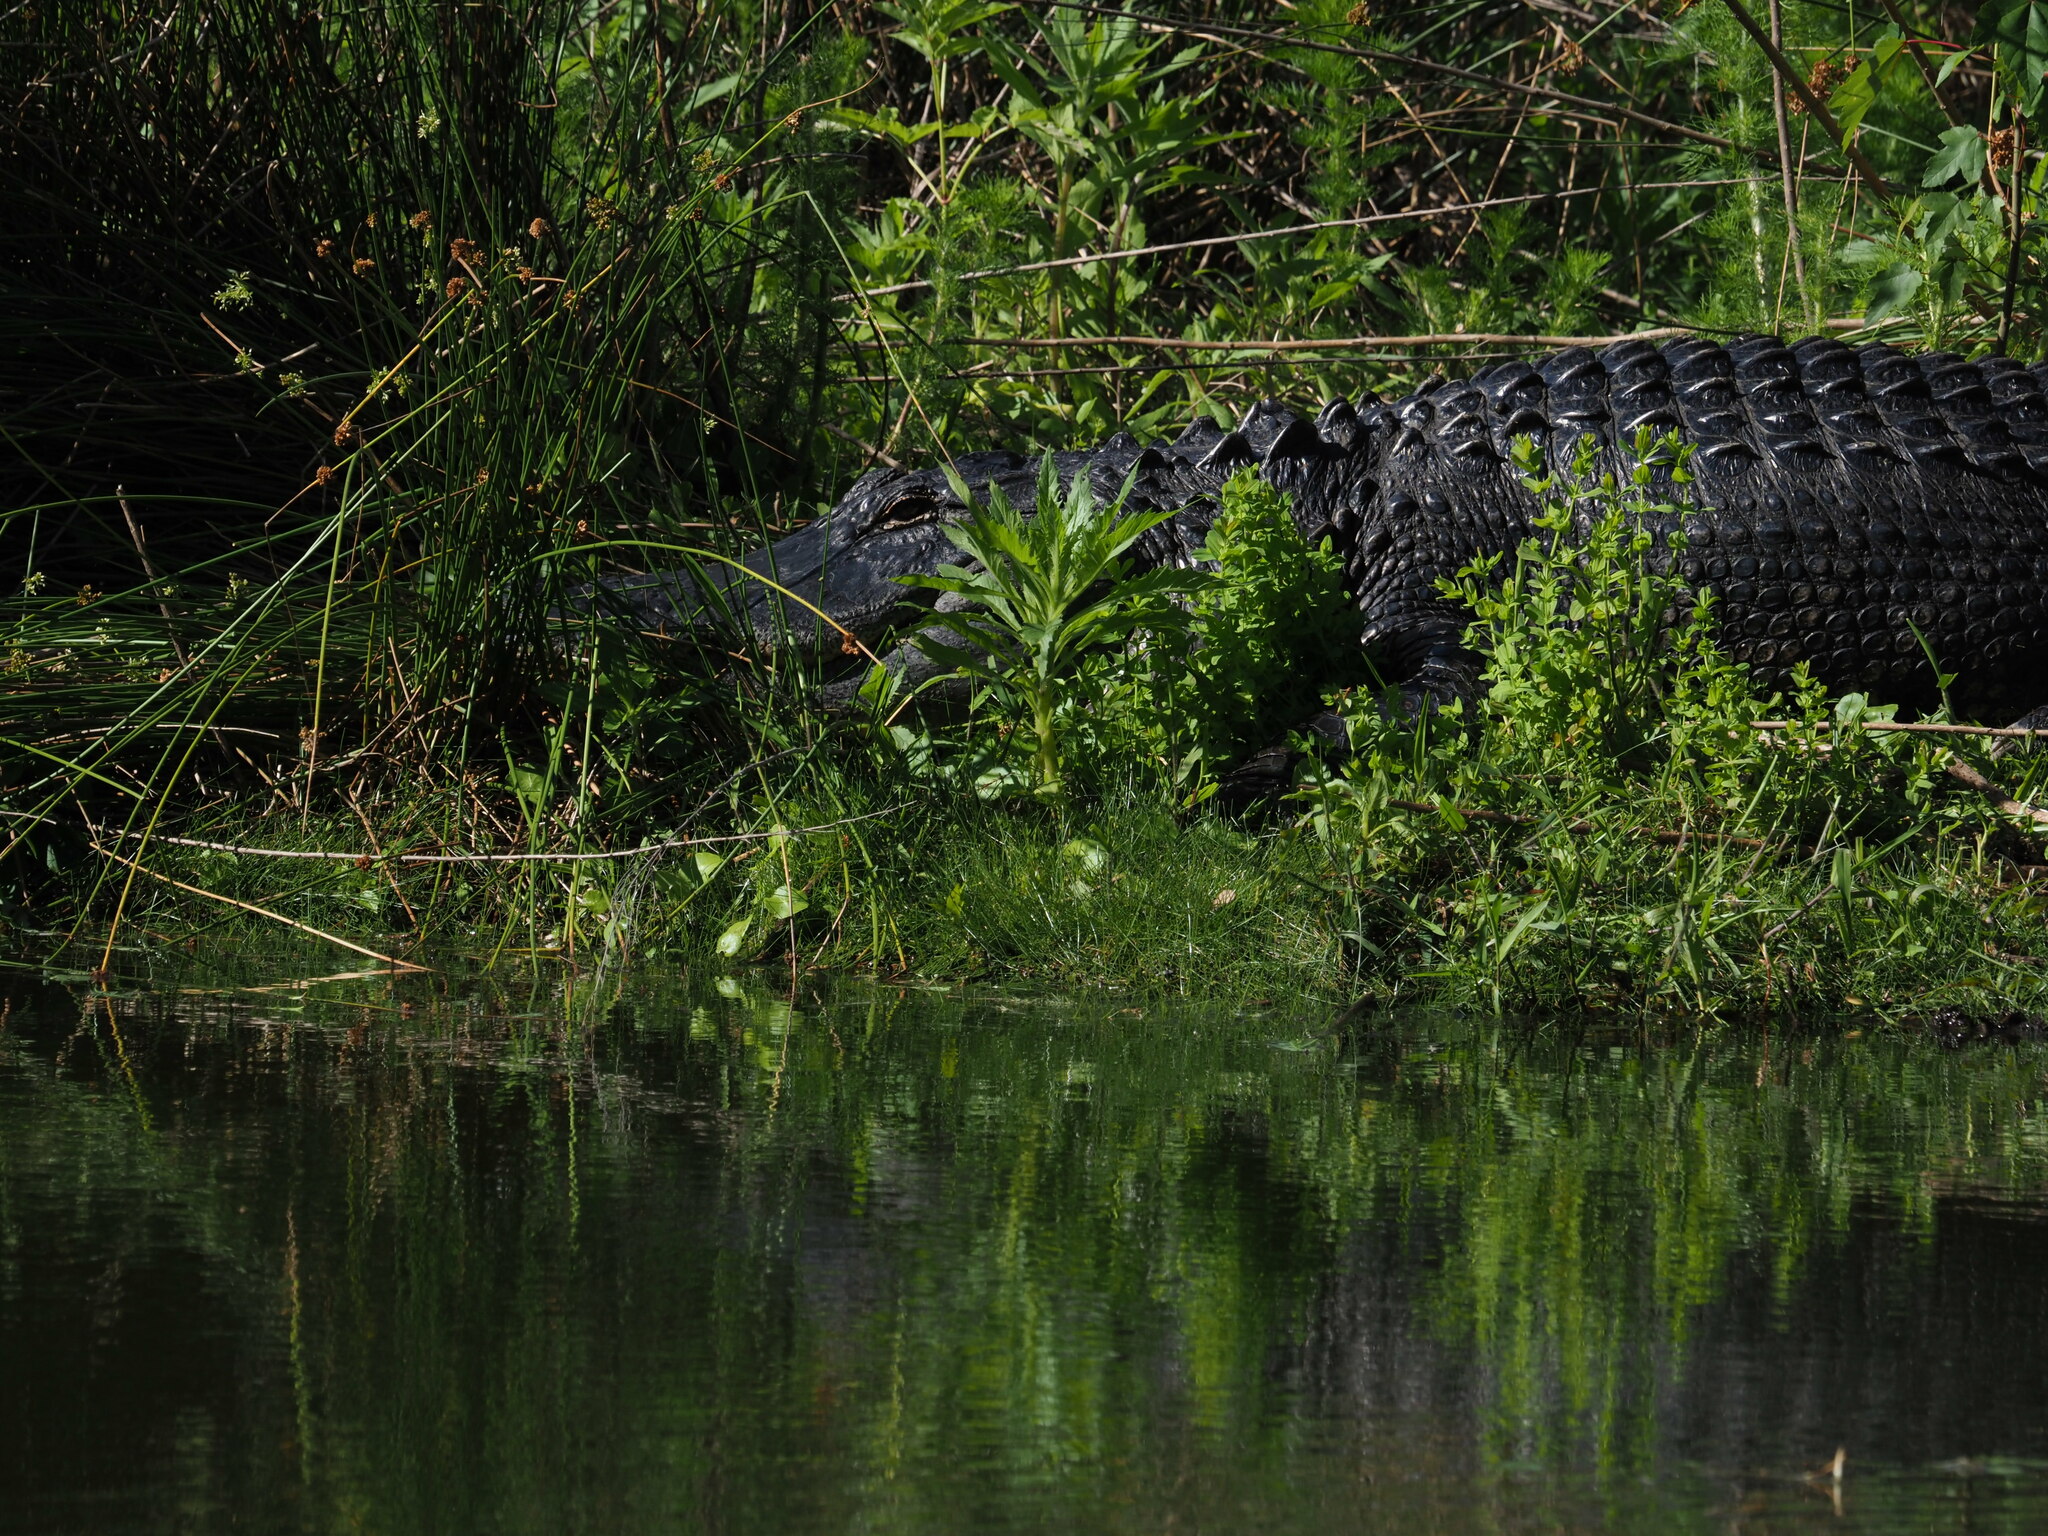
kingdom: Animalia
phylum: Chordata
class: Crocodylia
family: Alligatoridae
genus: Alligator
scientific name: Alligator mississippiensis
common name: American alligator
